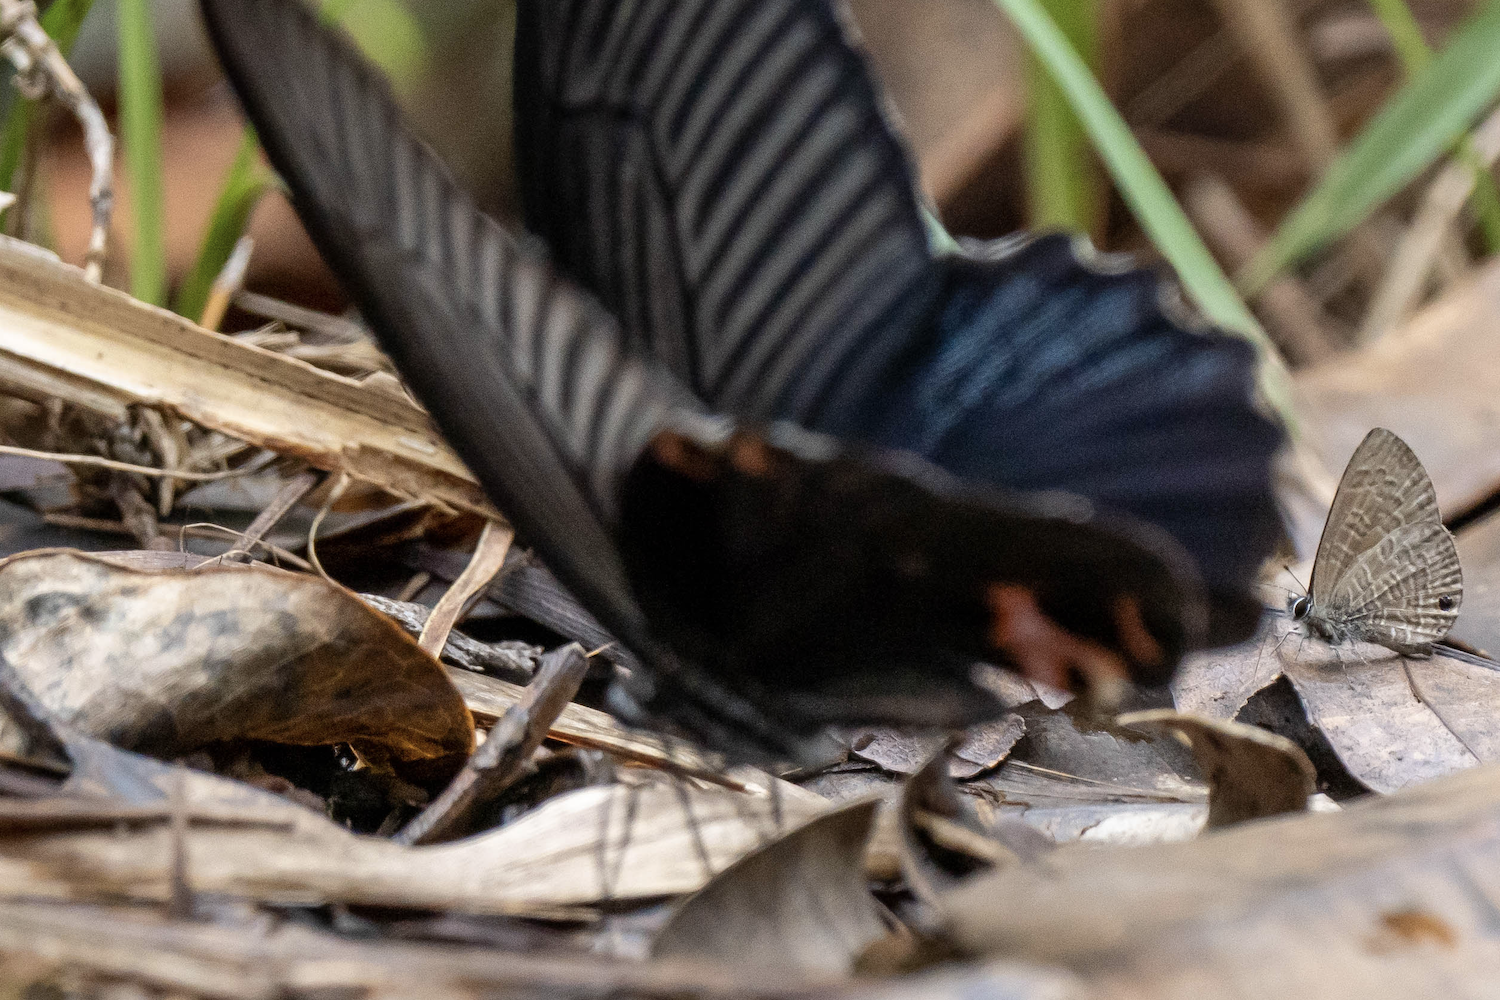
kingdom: Animalia
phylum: Arthropoda
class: Insecta
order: Lepidoptera
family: Papilionidae
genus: Papilio
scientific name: Papilio protenor
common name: Spangle
